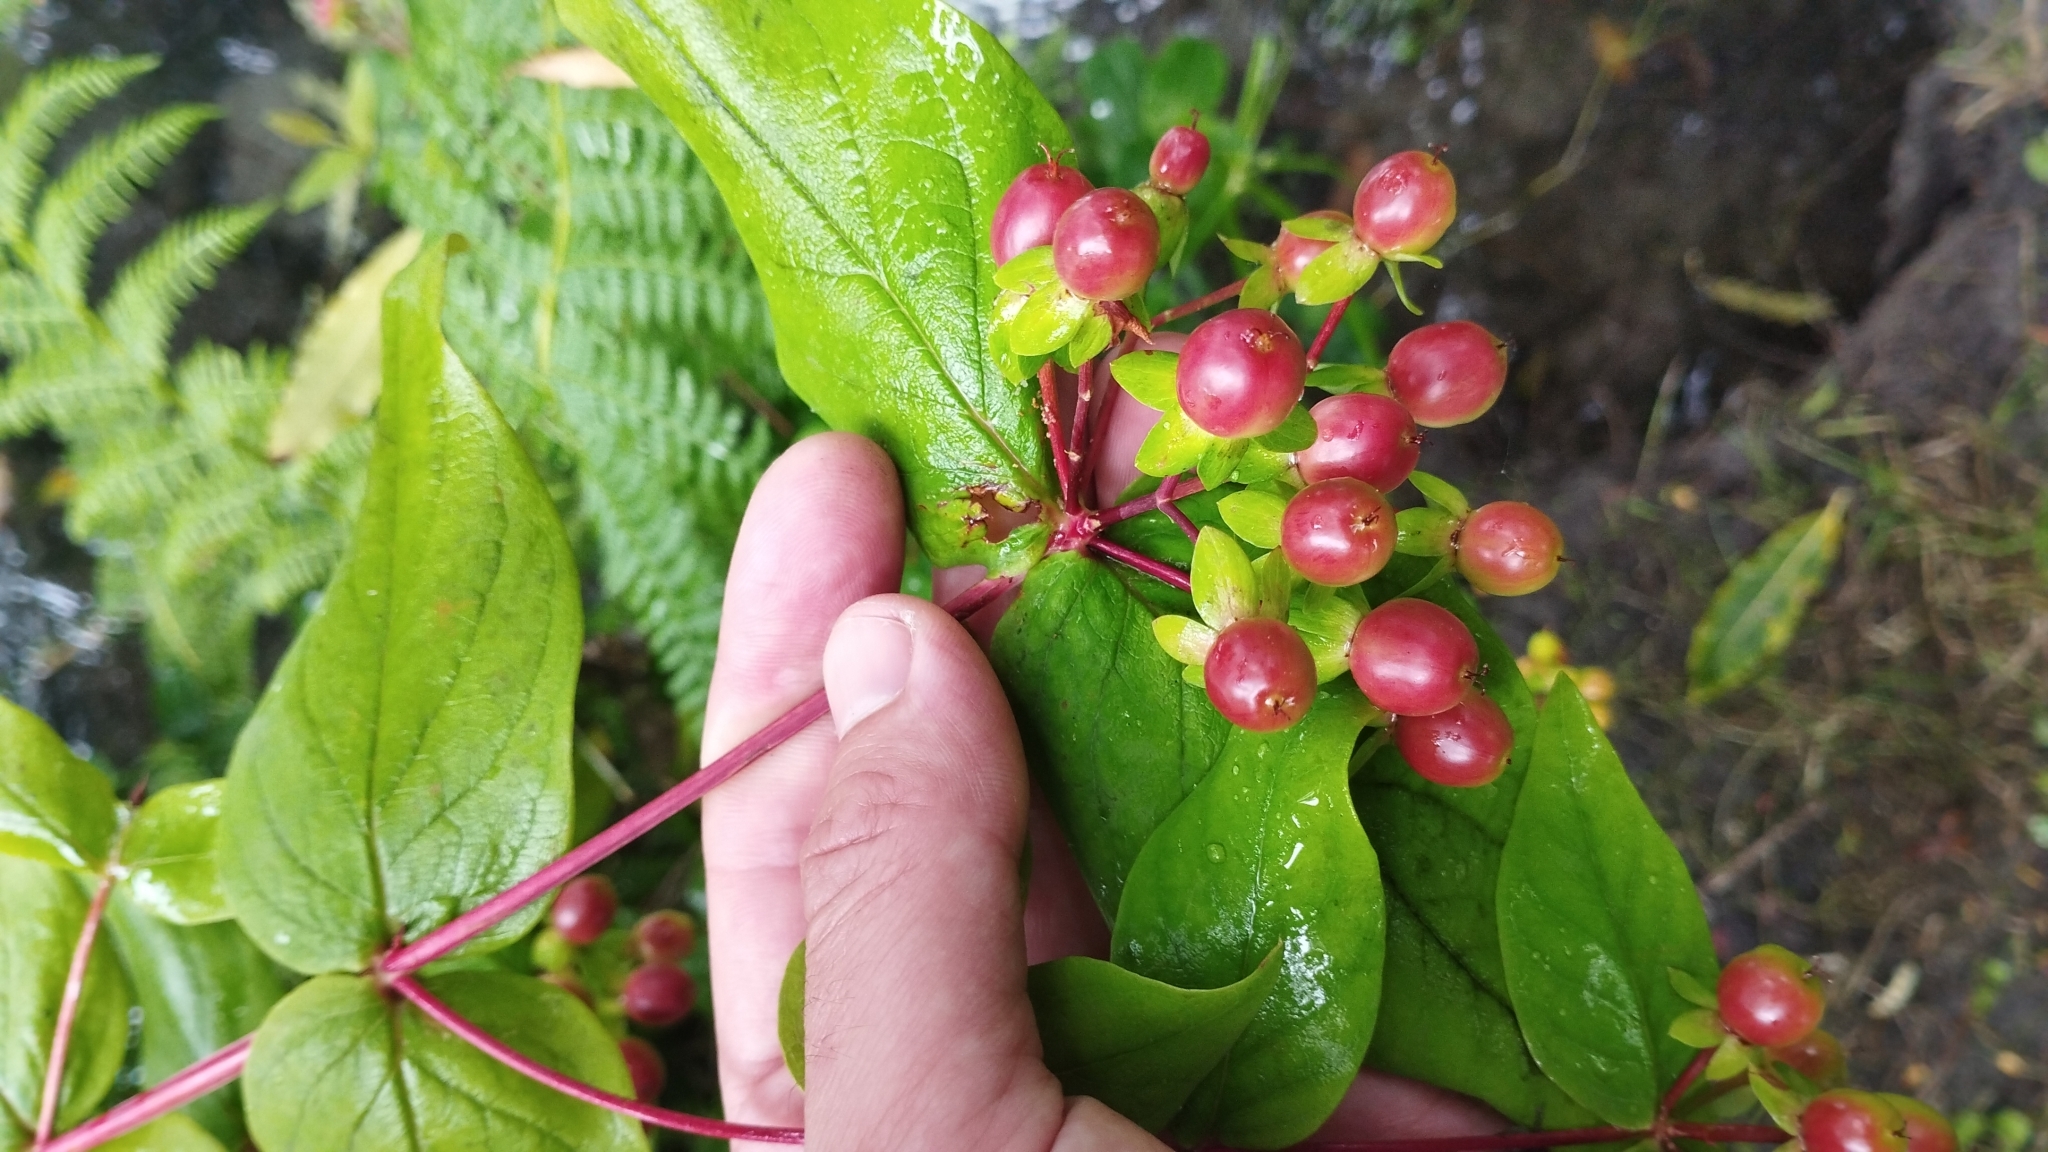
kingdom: Plantae
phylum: Tracheophyta
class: Magnoliopsida
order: Malpighiales
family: Hypericaceae
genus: Hypericum
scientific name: Hypericum androsaemum
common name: Sweet-amber
